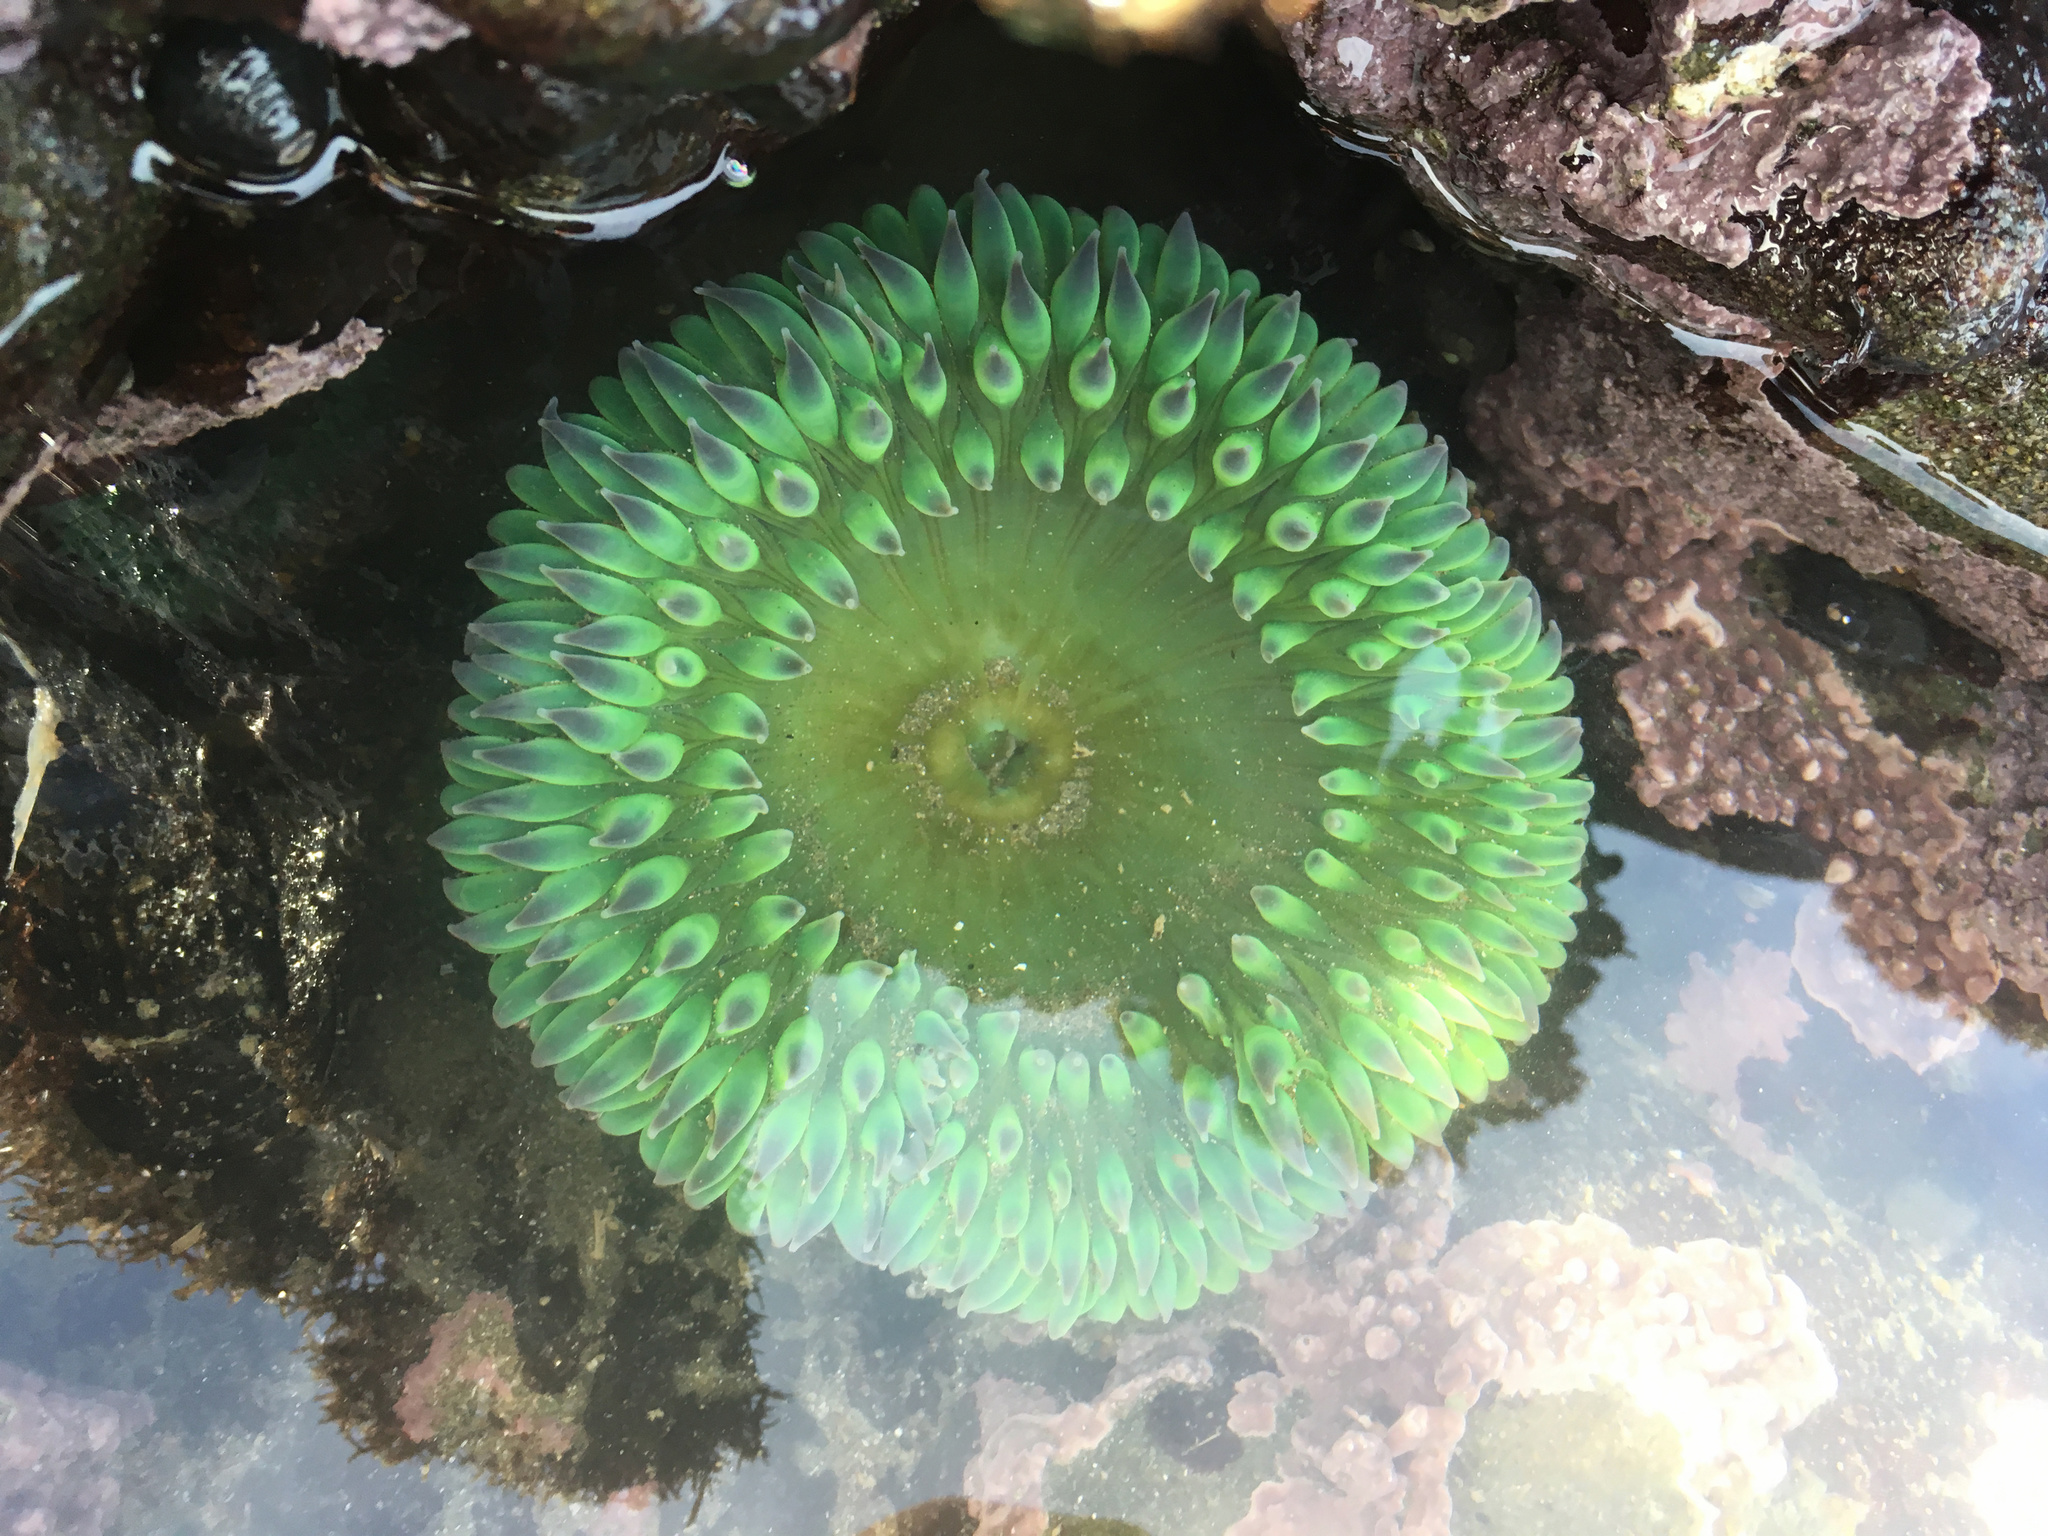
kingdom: Animalia
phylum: Cnidaria
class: Anthozoa
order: Actiniaria
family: Actiniidae
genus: Anthopleura
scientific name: Anthopleura xanthogrammica
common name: Giant green anemone
